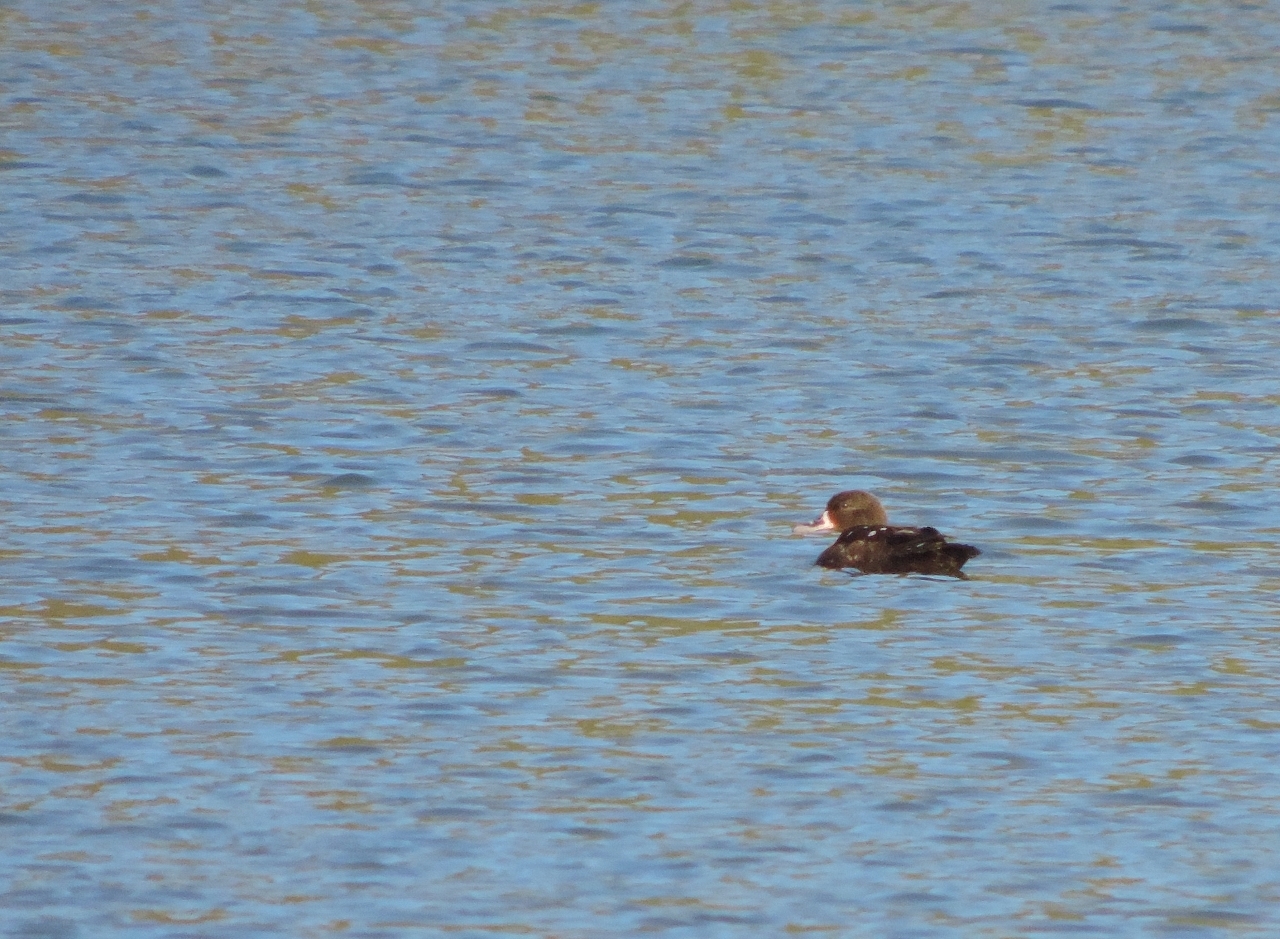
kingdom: Animalia
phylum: Chordata
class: Aves
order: Anseriformes
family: Anatidae
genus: Anas
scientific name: Anas sparsa
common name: African black duck
